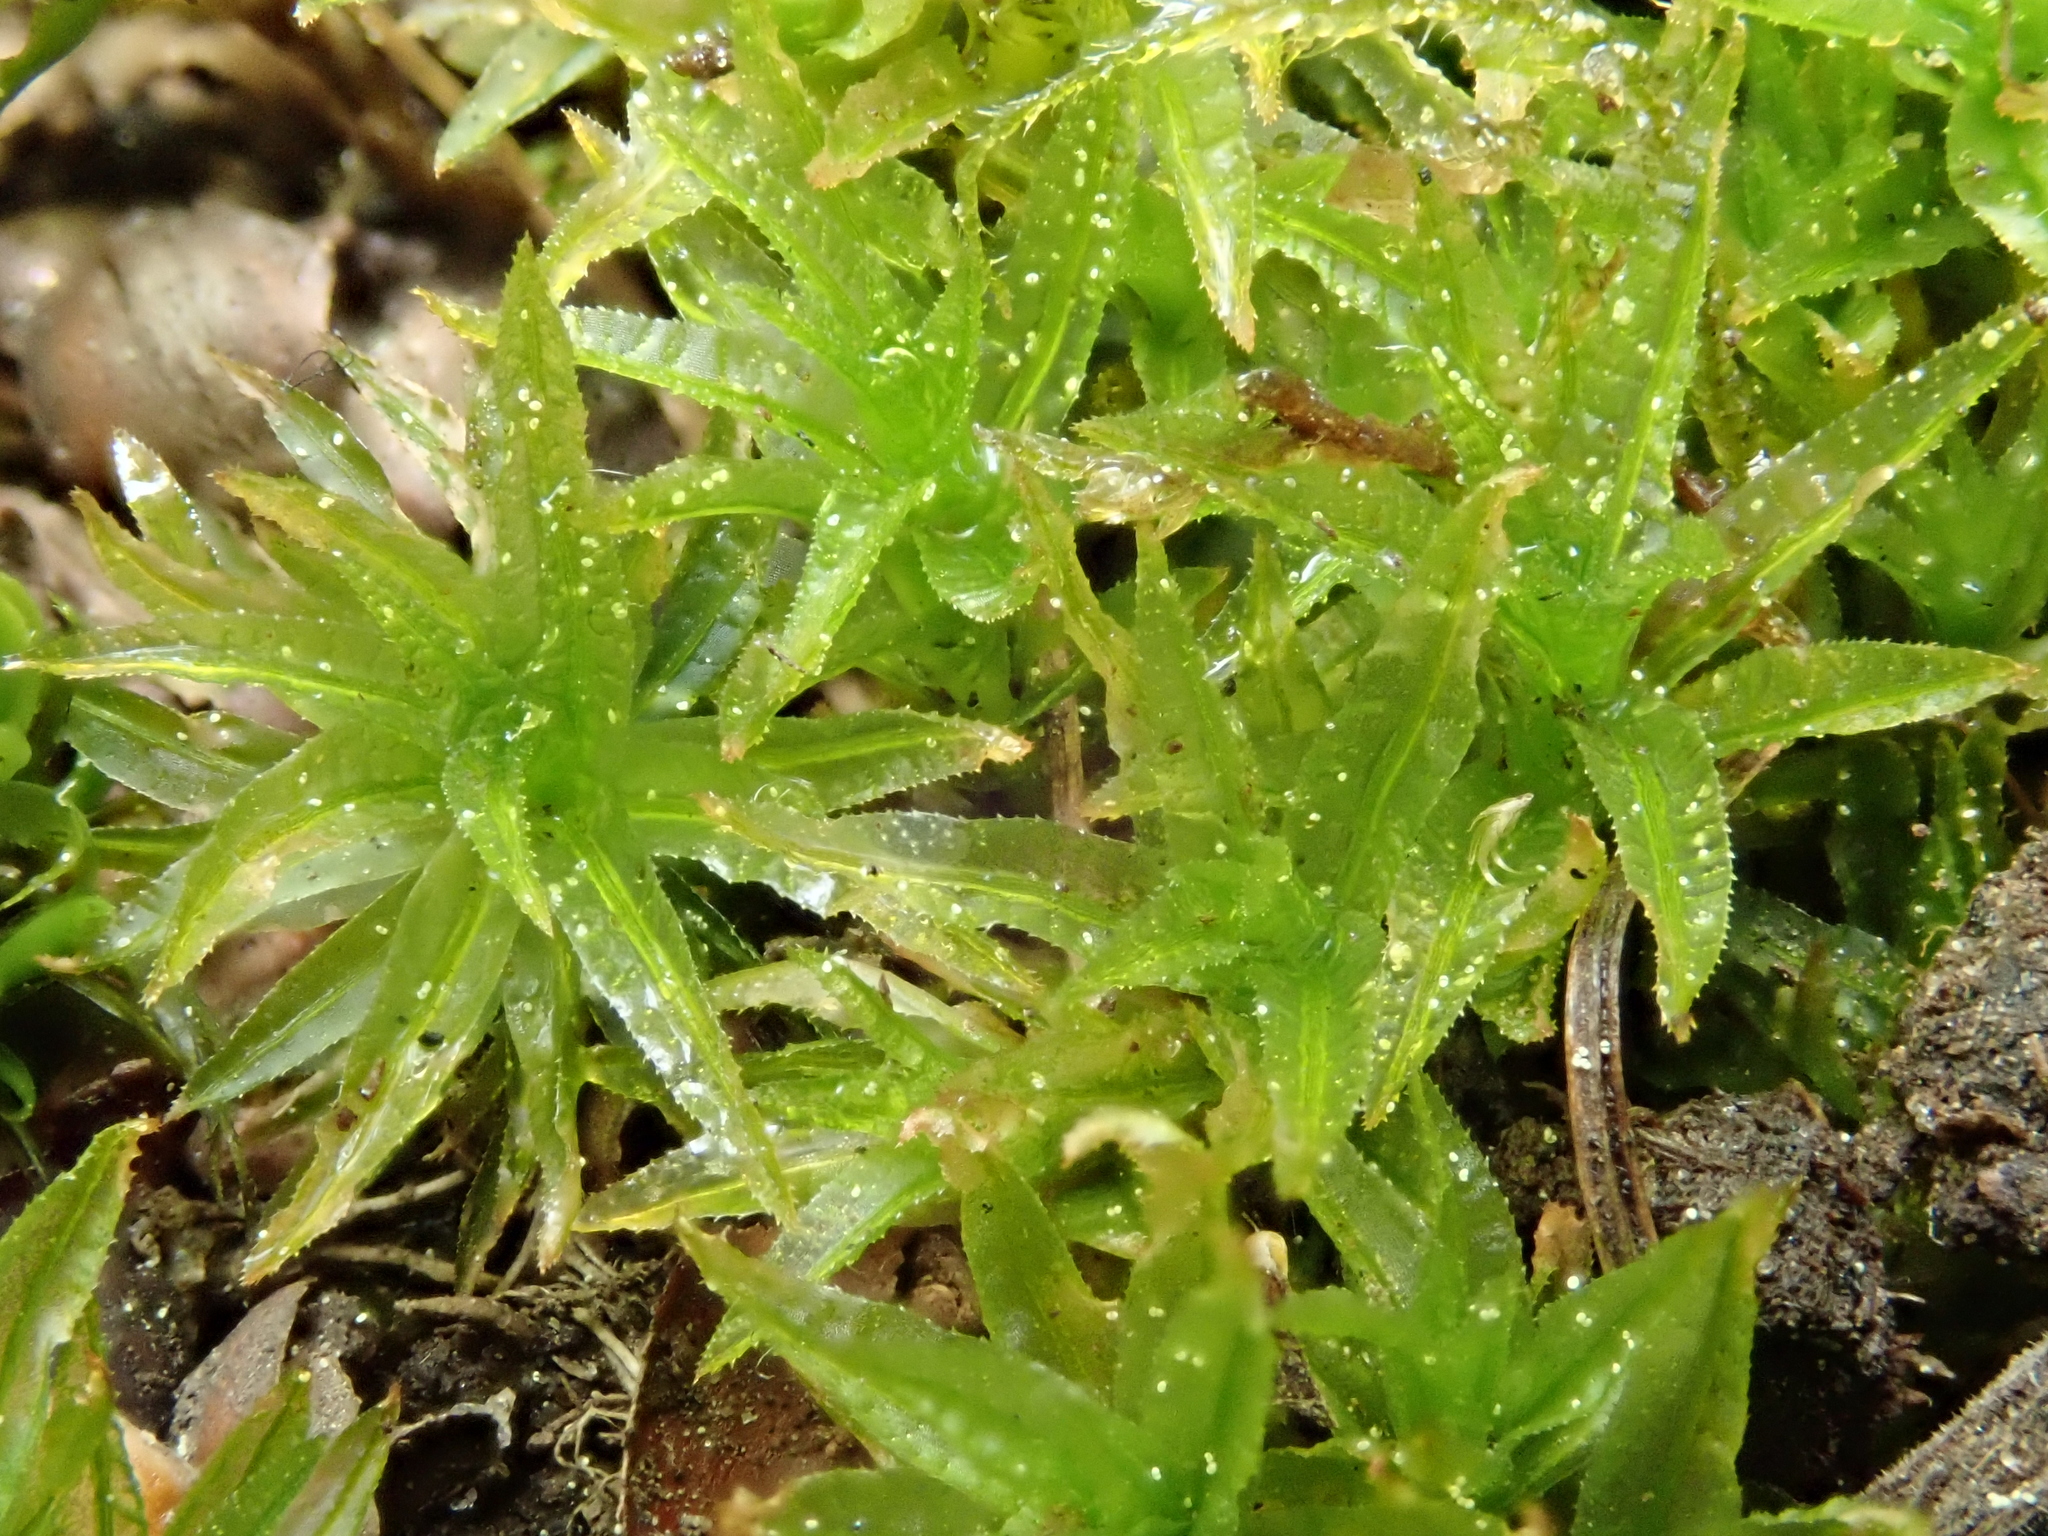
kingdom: Plantae
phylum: Bryophyta
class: Polytrichopsida
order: Polytrichales
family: Polytrichaceae
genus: Atrichum
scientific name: Atrichum undulatum
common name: Common smoothcap
